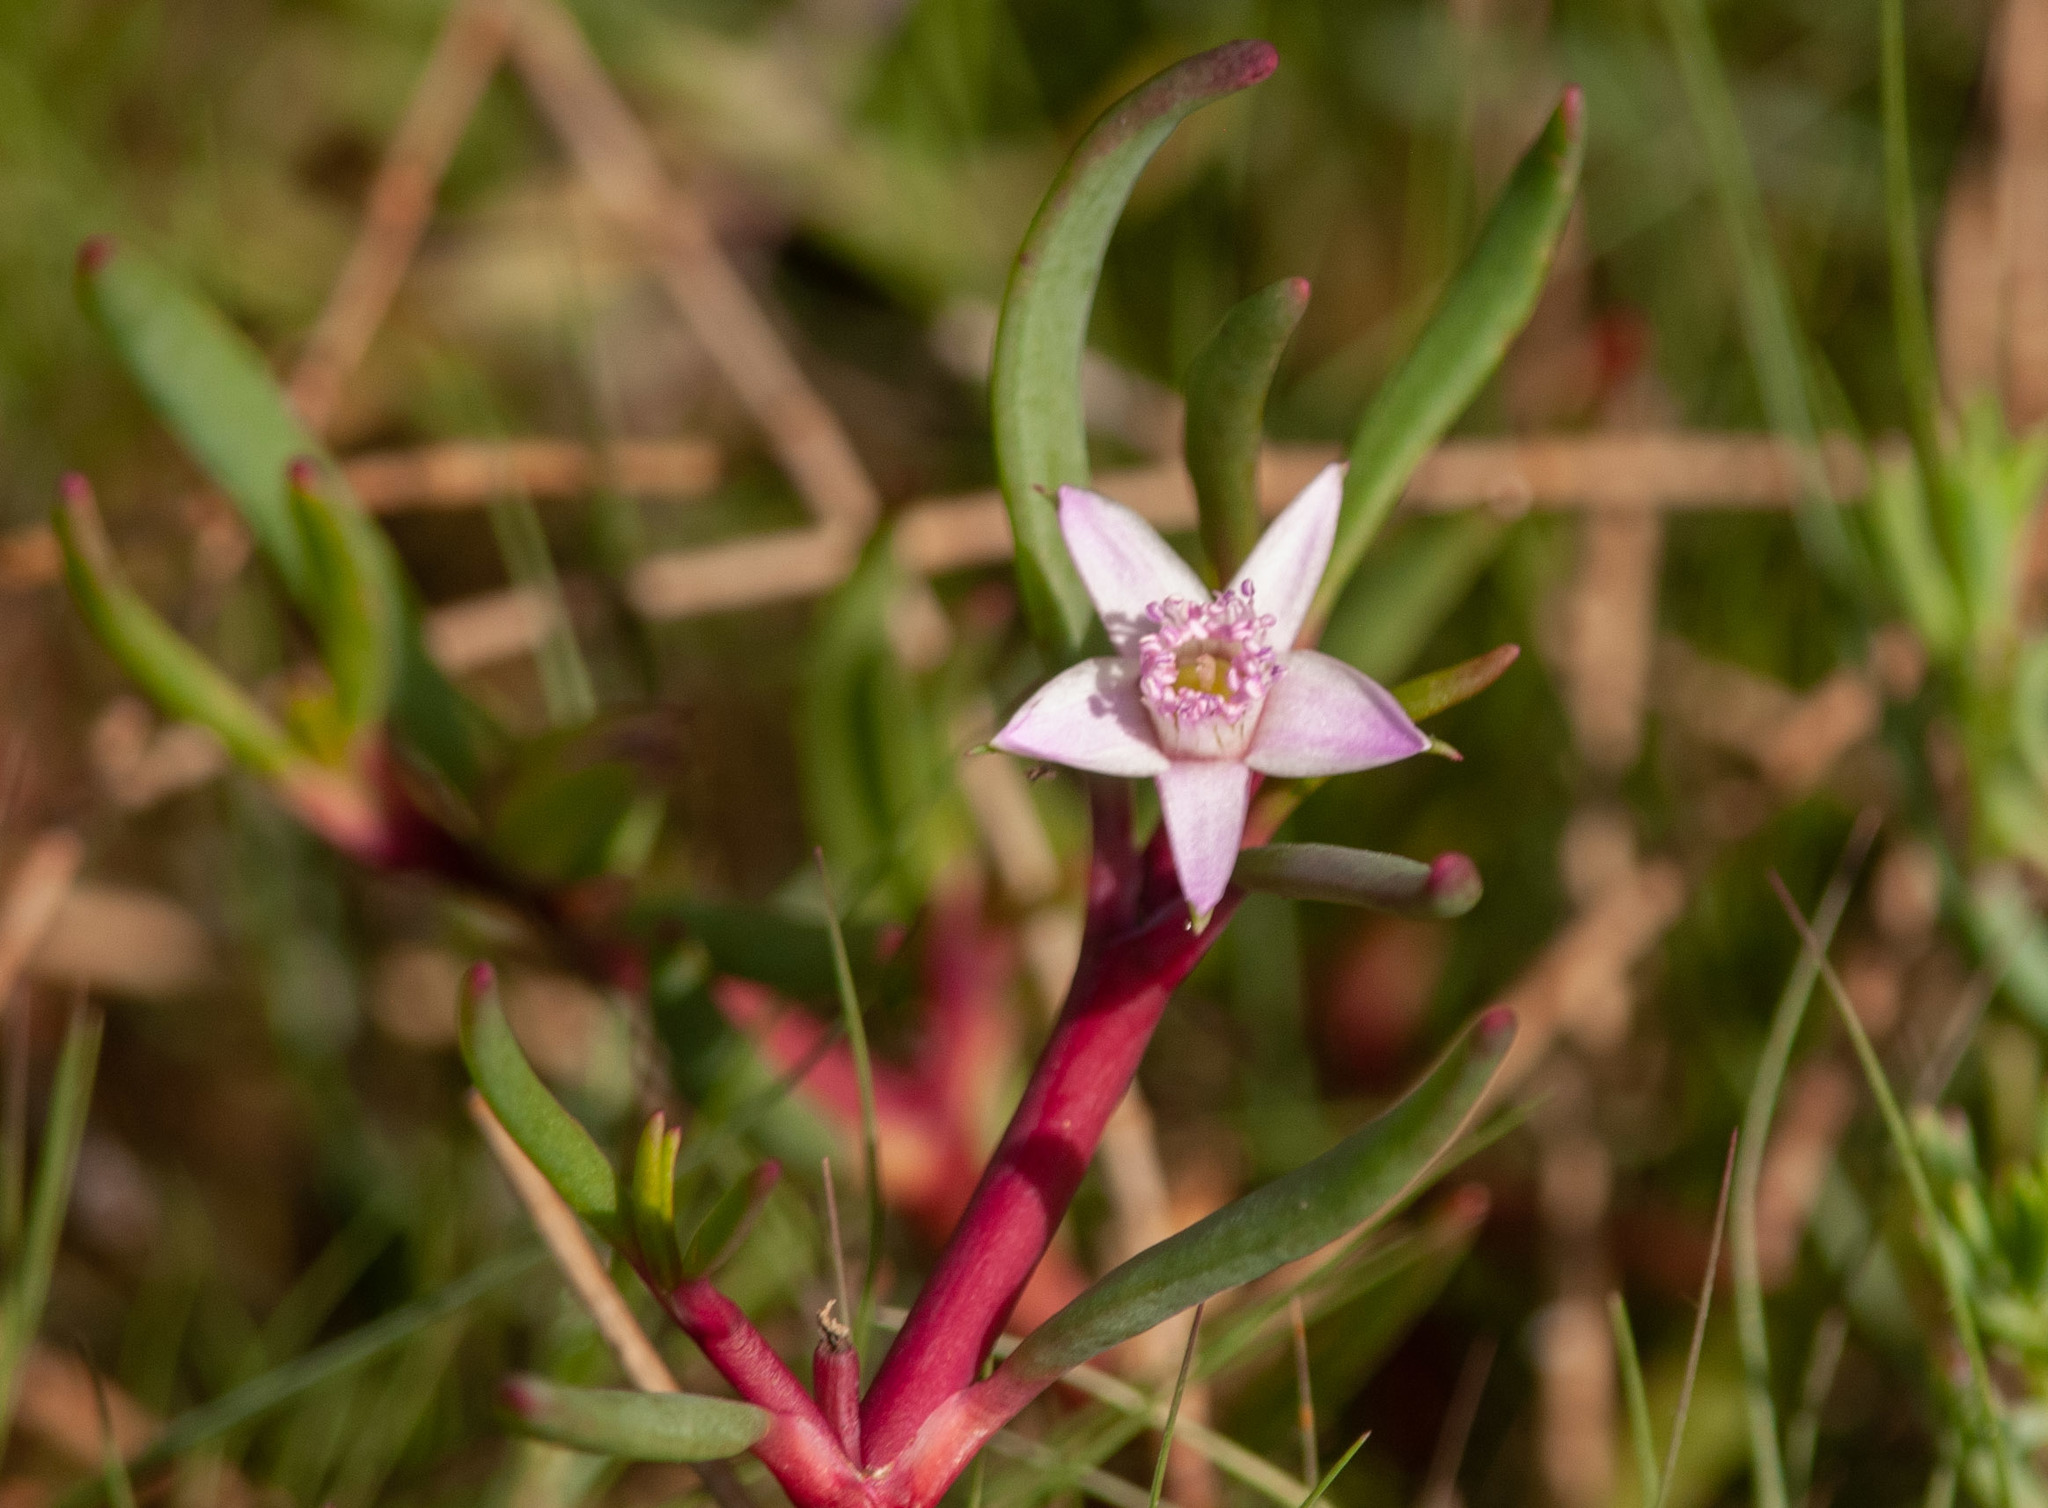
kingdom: Plantae
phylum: Tracheophyta
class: Magnoliopsida
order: Caryophyllales
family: Aizoaceae
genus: Sesuvium
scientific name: Sesuvium portulacastrum
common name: Sea-purslane
